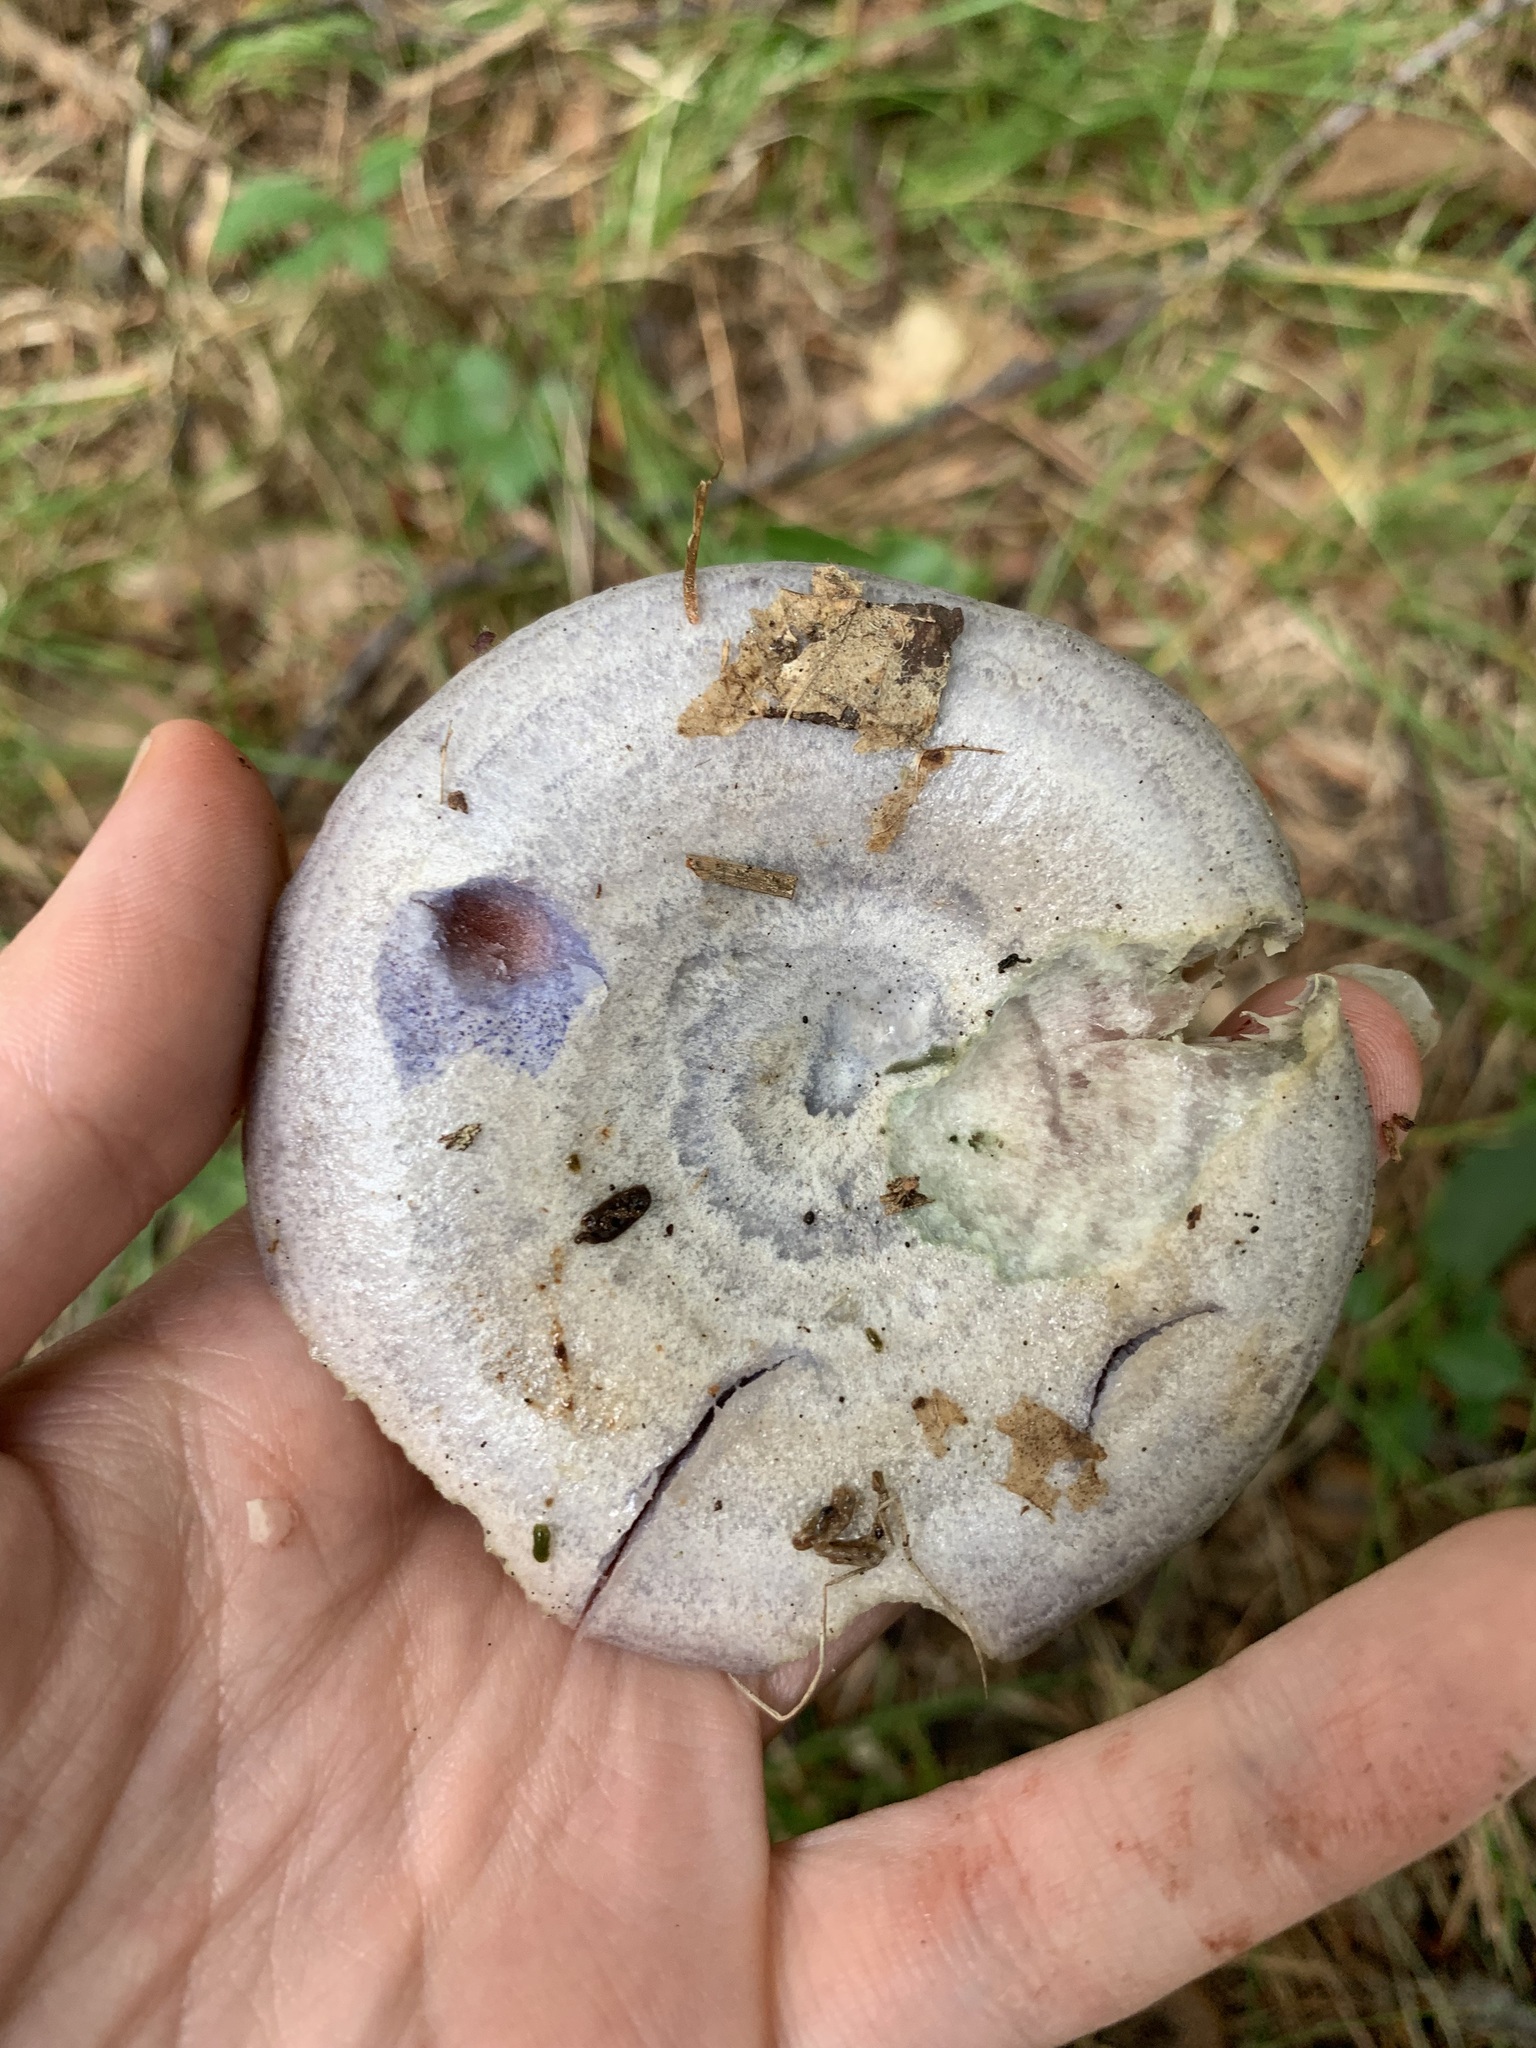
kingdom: Fungi
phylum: Basidiomycota
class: Agaricomycetes
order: Russulales
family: Russulaceae
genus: Lactarius
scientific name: Lactarius paradoxus
